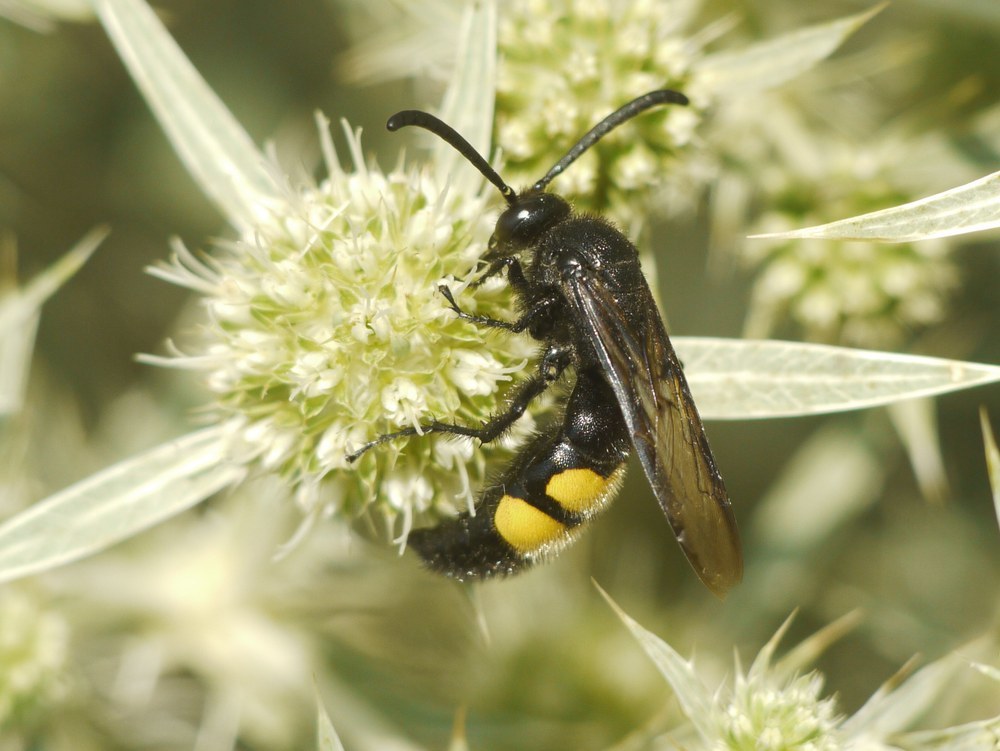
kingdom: Animalia
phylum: Arthropoda
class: Insecta
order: Hymenoptera
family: Scoliidae
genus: Scolia
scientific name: Scolia hirta
